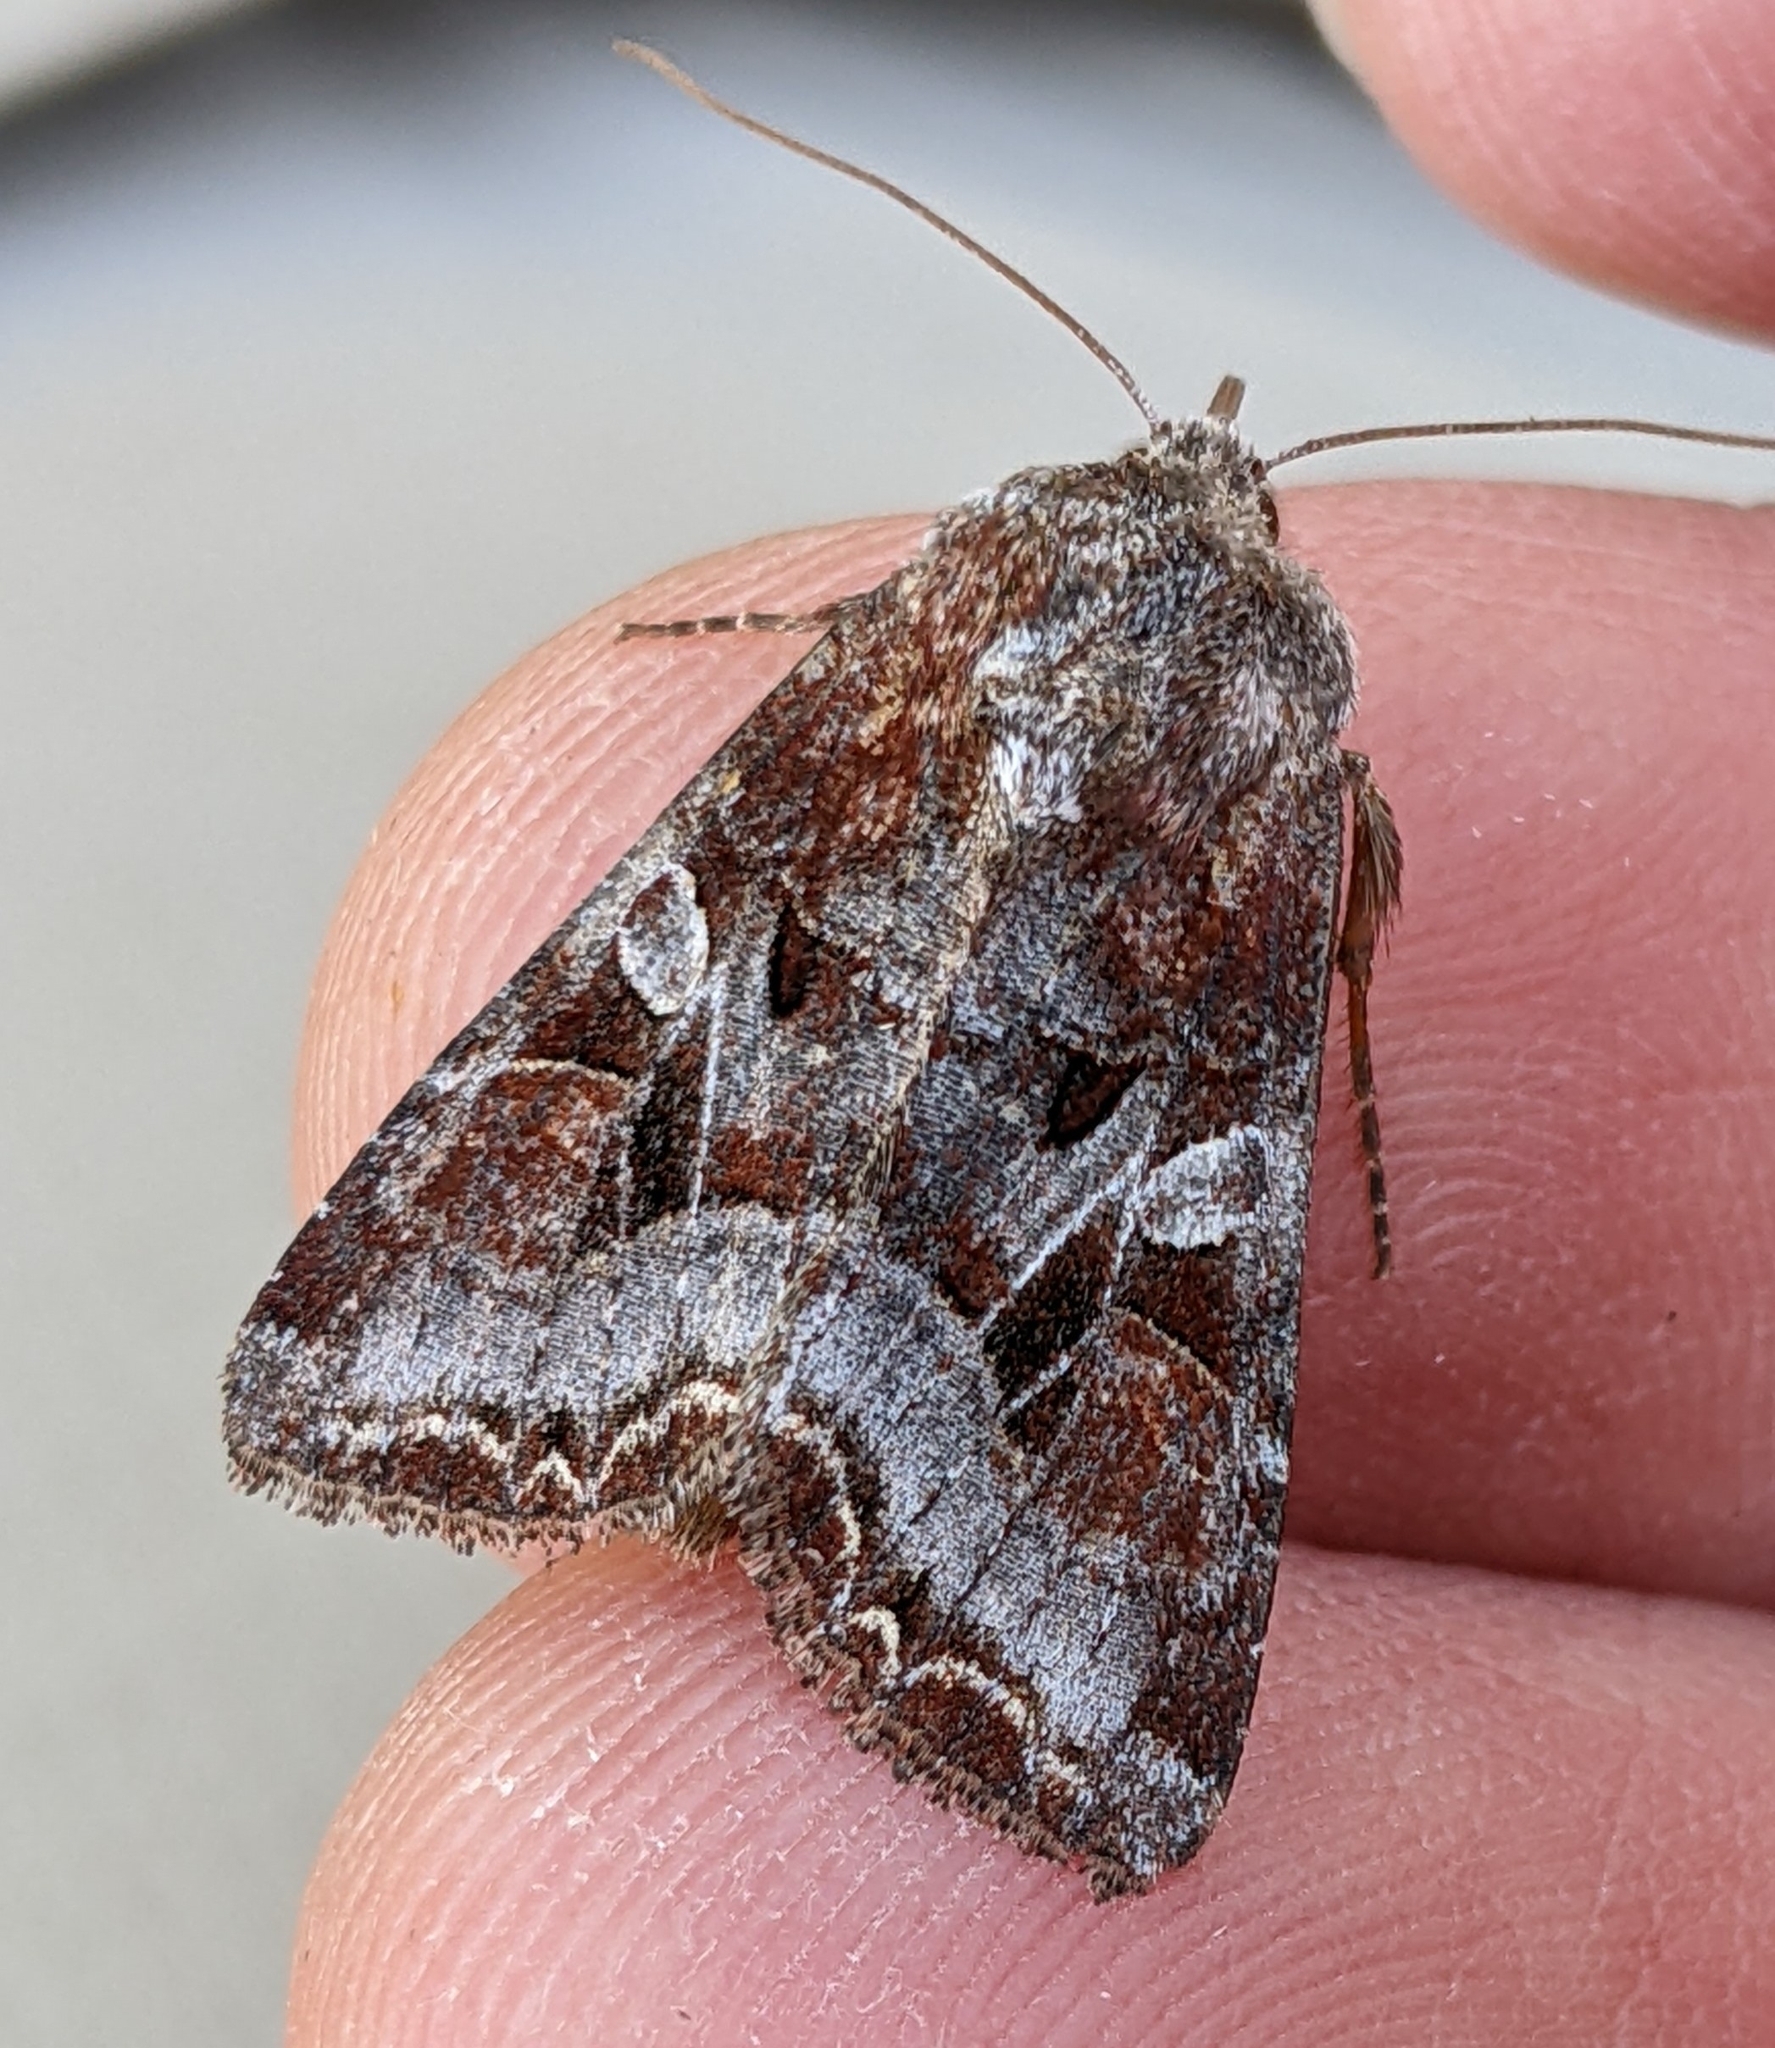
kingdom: Animalia
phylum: Arthropoda
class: Insecta
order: Lepidoptera
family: Noctuidae
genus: Trichordestra
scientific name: Trichordestra tacoma
